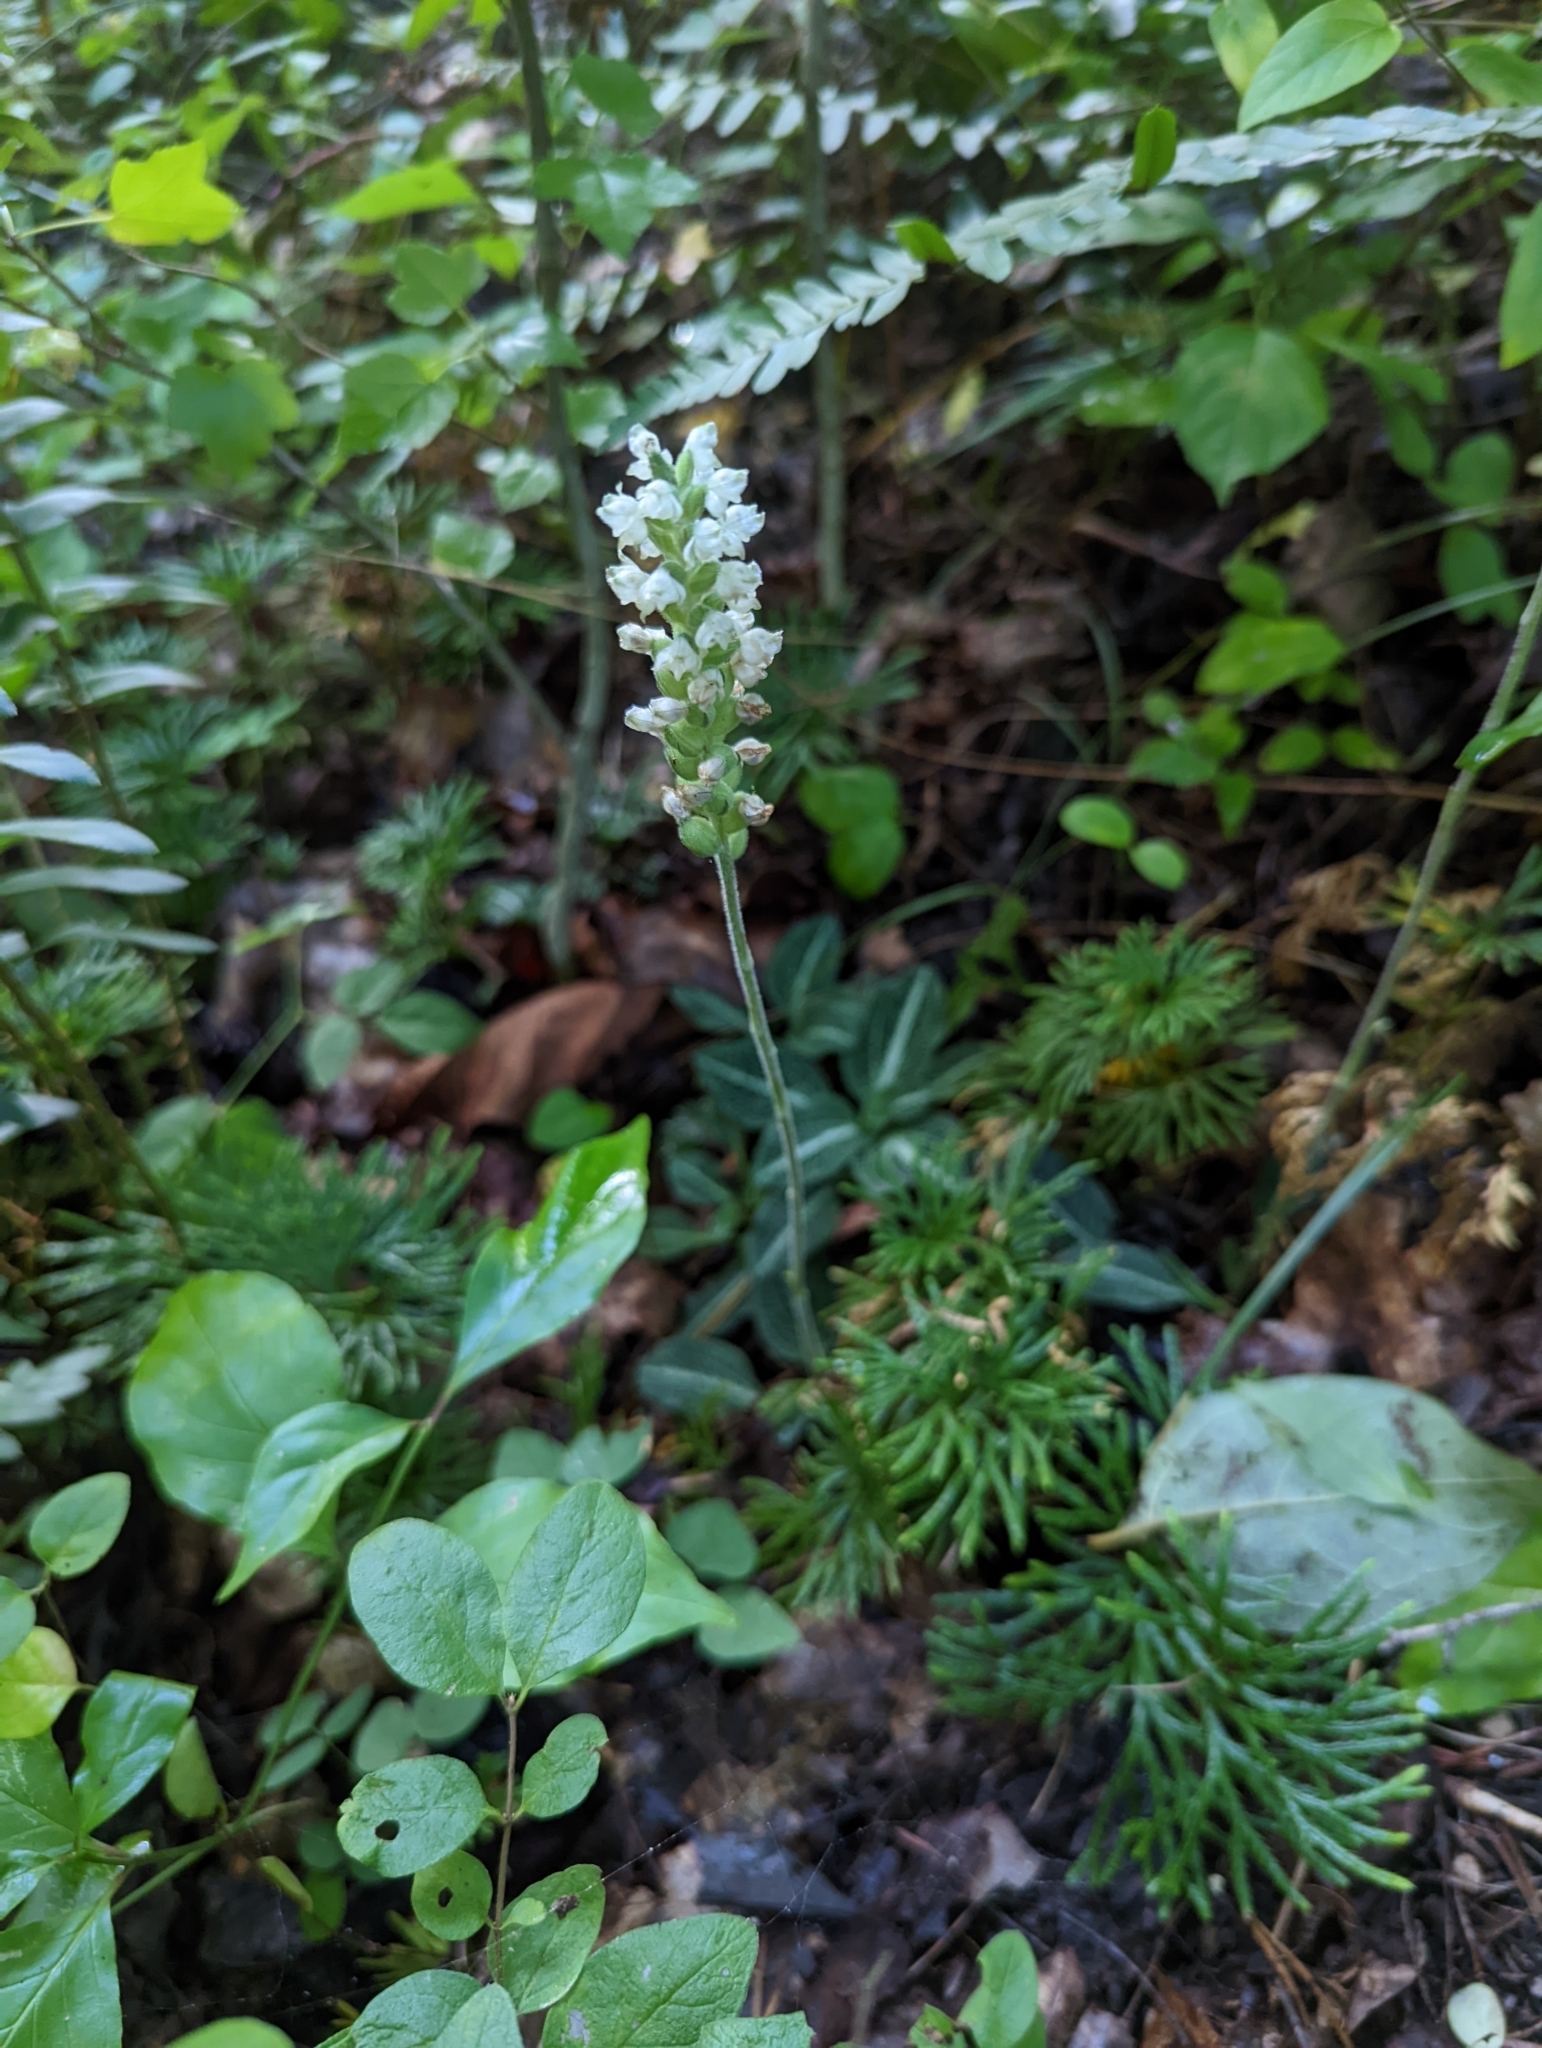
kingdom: Plantae
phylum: Tracheophyta
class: Liliopsida
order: Asparagales
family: Orchidaceae
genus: Goodyera
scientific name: Goodyera pubescens
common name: Downy rattlesnake-plantain
